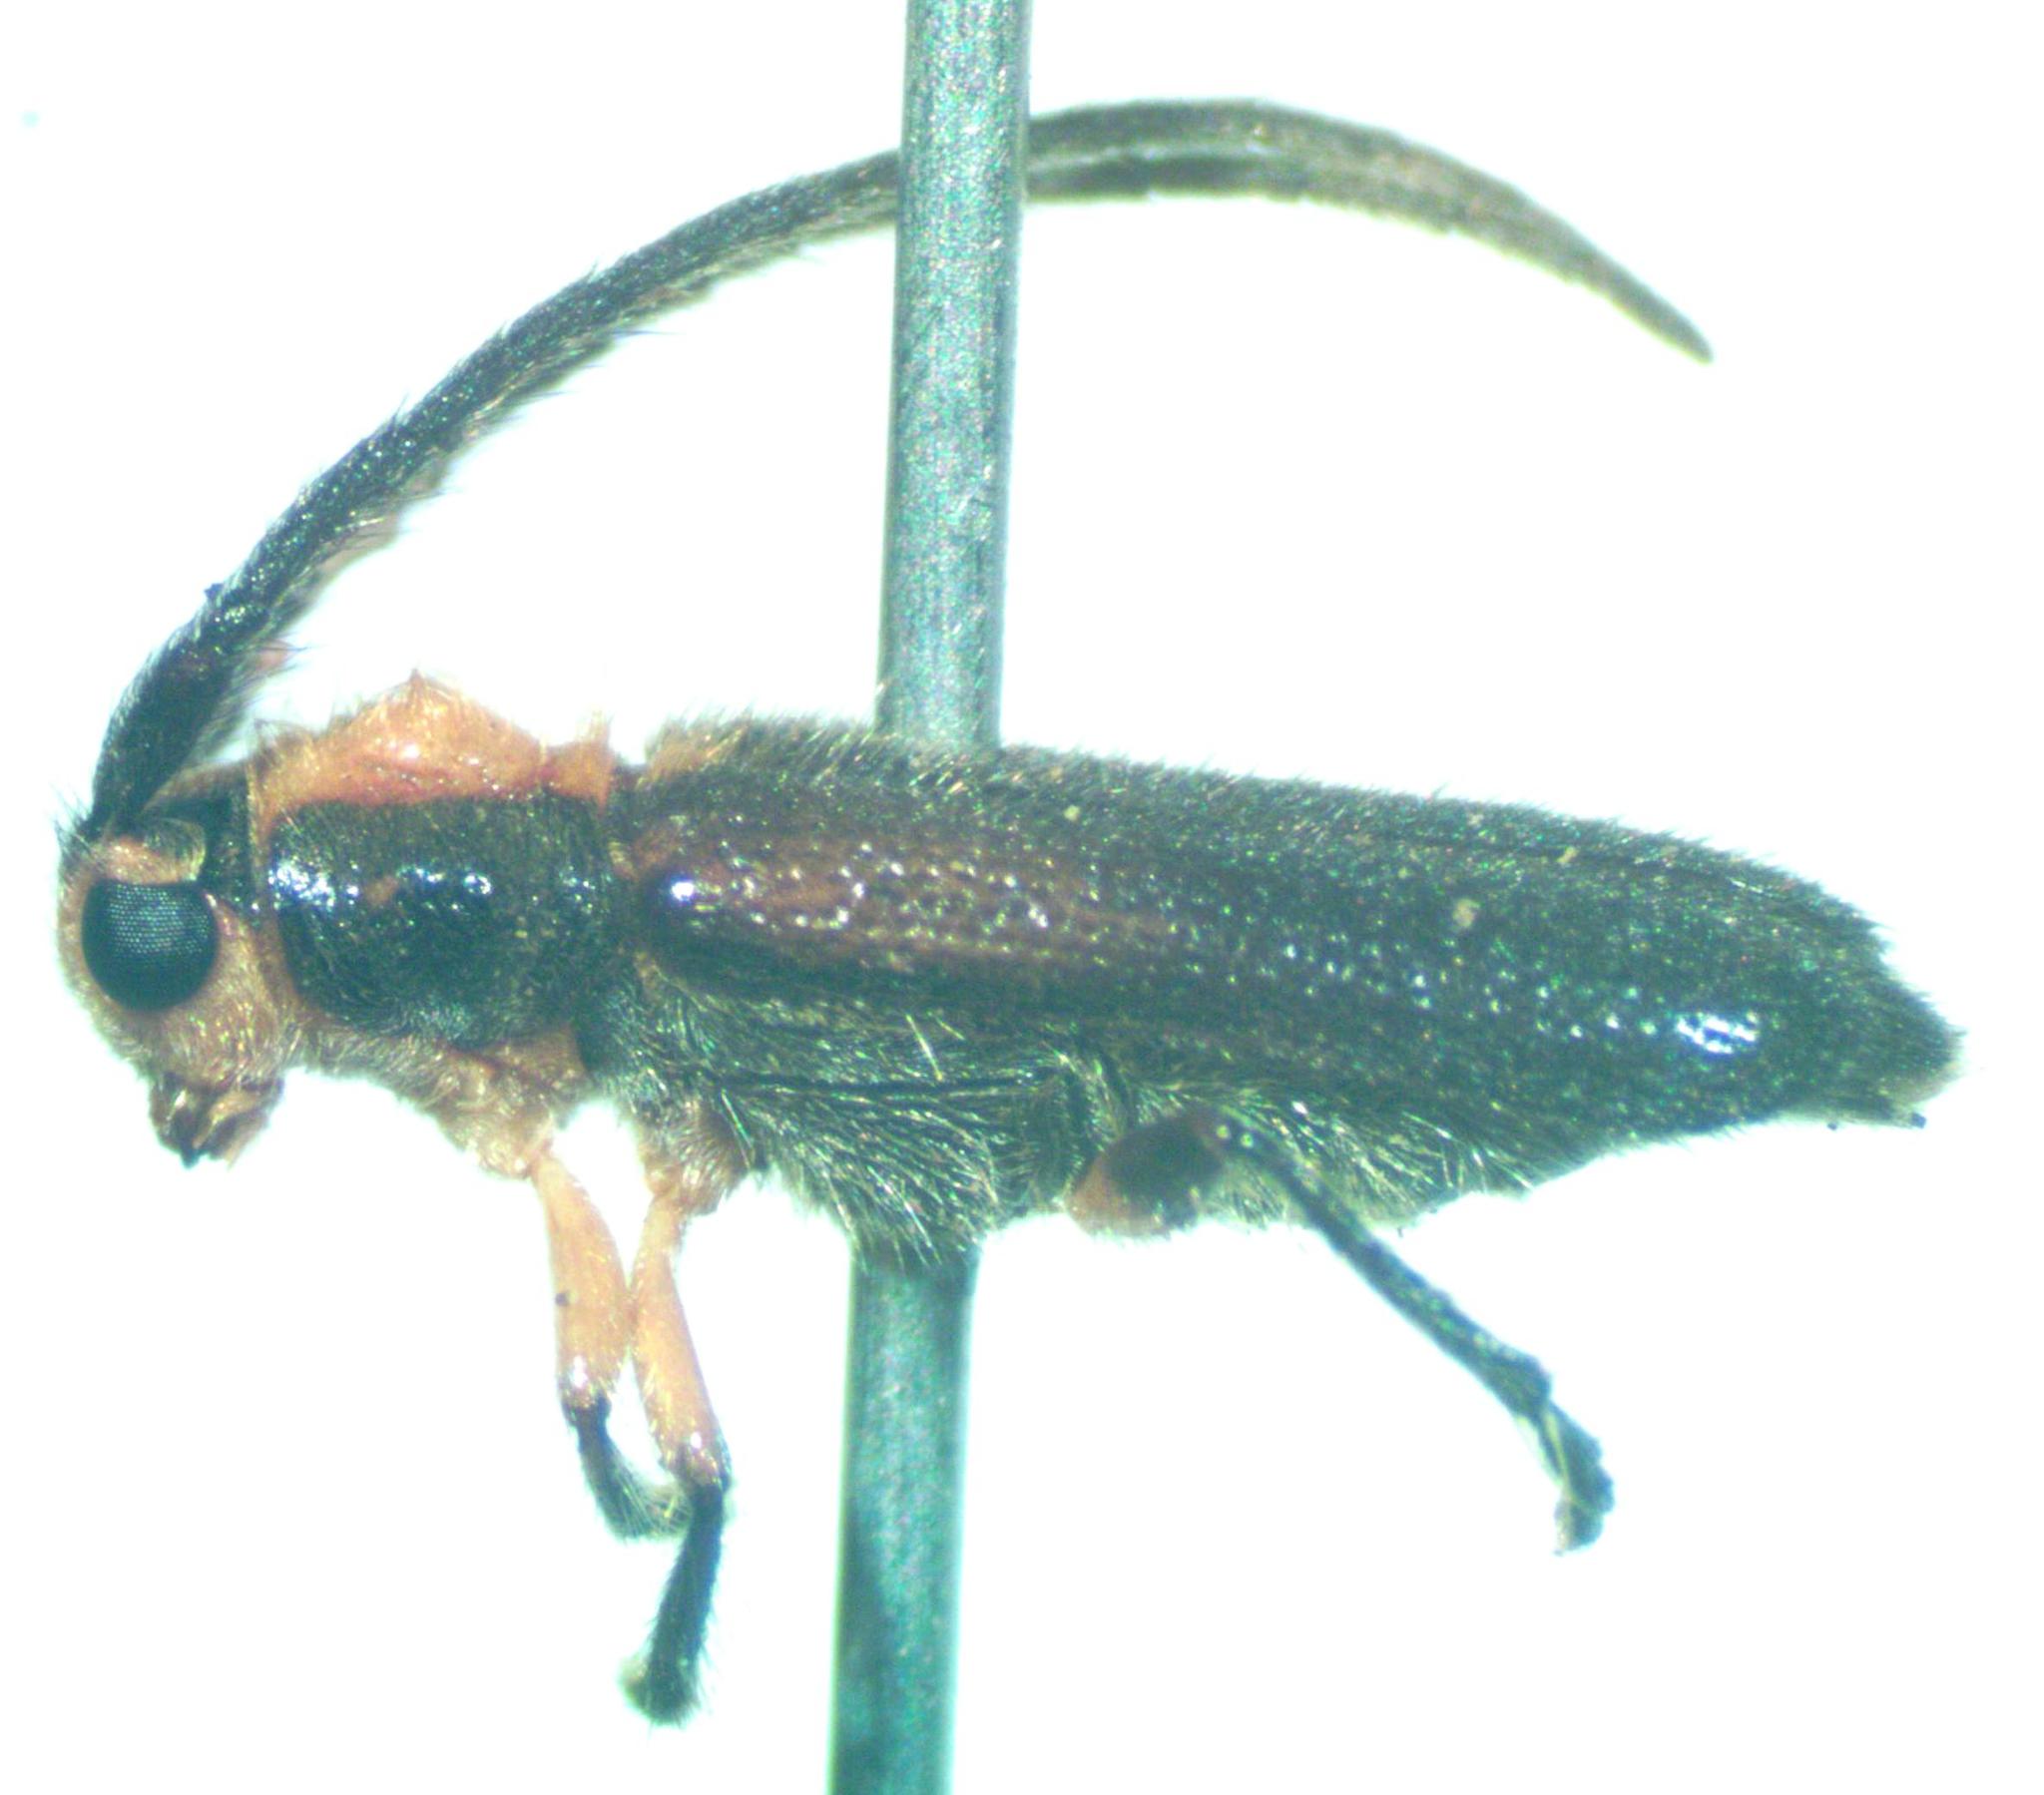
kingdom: Animalia
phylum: Arthropoda
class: Insecta
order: Coleoptera
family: Cerambycidae
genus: Phaea
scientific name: Phaea flavovittata
